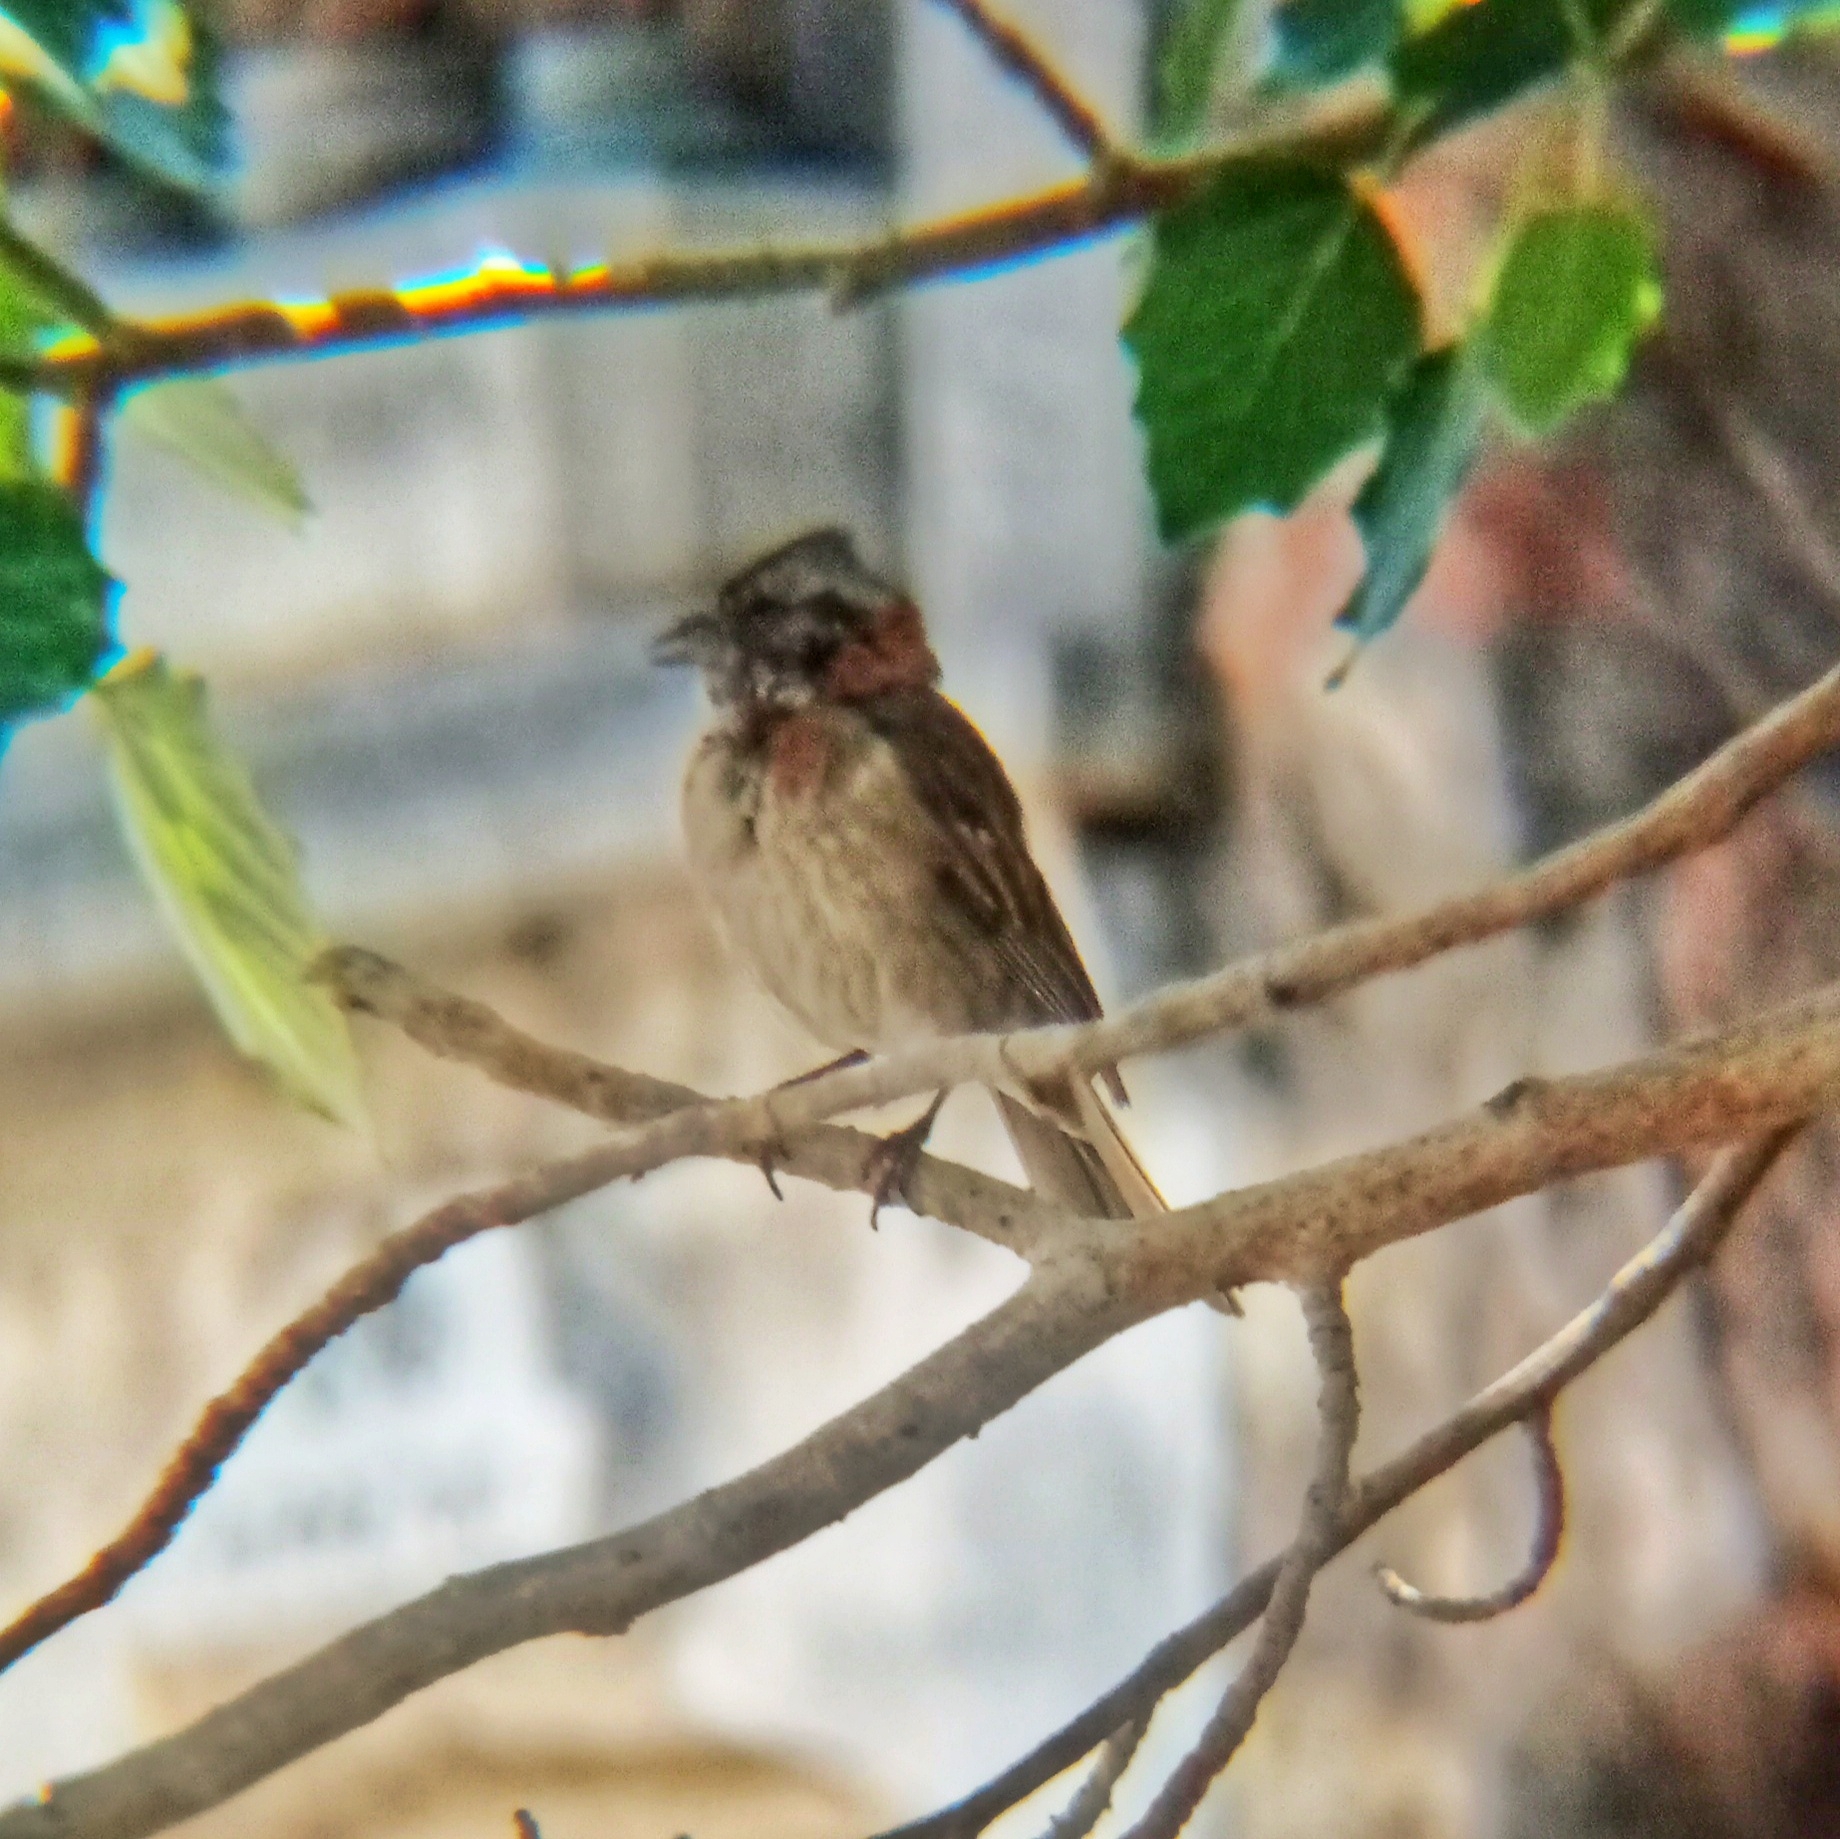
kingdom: Animalia
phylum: Chordata
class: Aves
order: Passeriformes
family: Passerellidae
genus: Zonotrichia
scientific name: Zonotrichia capensis
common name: Rufous-collared sparrow
